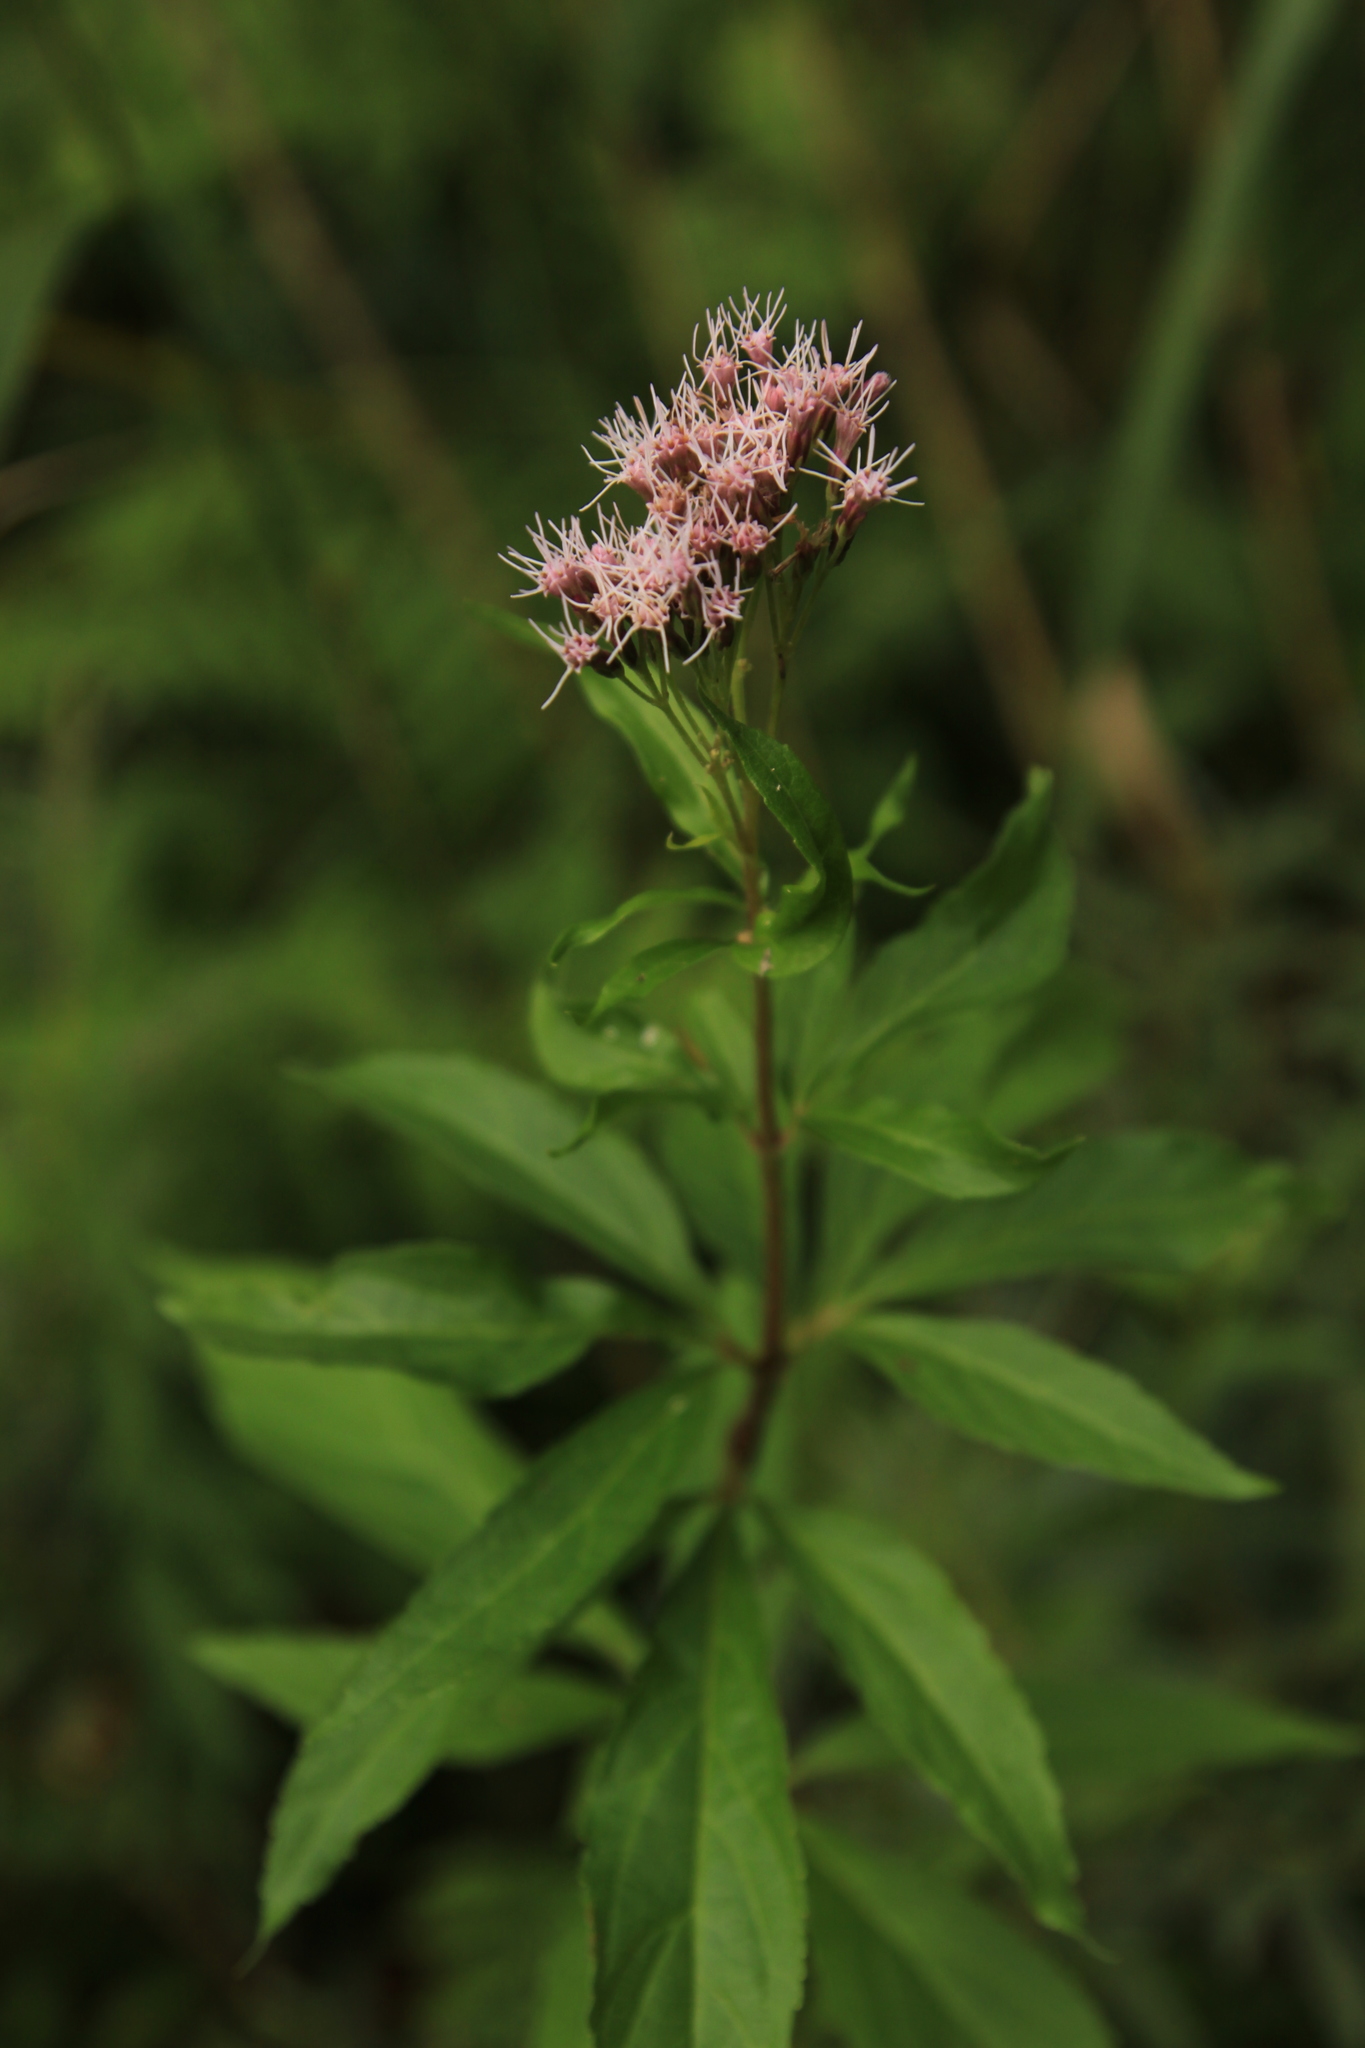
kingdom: Plantae
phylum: Tracheophyta
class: Magnoliopsida
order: Asterales
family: Asteraceae
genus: Eupatorium
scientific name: Eupatorium cannabinum
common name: Hemp-agrimony
